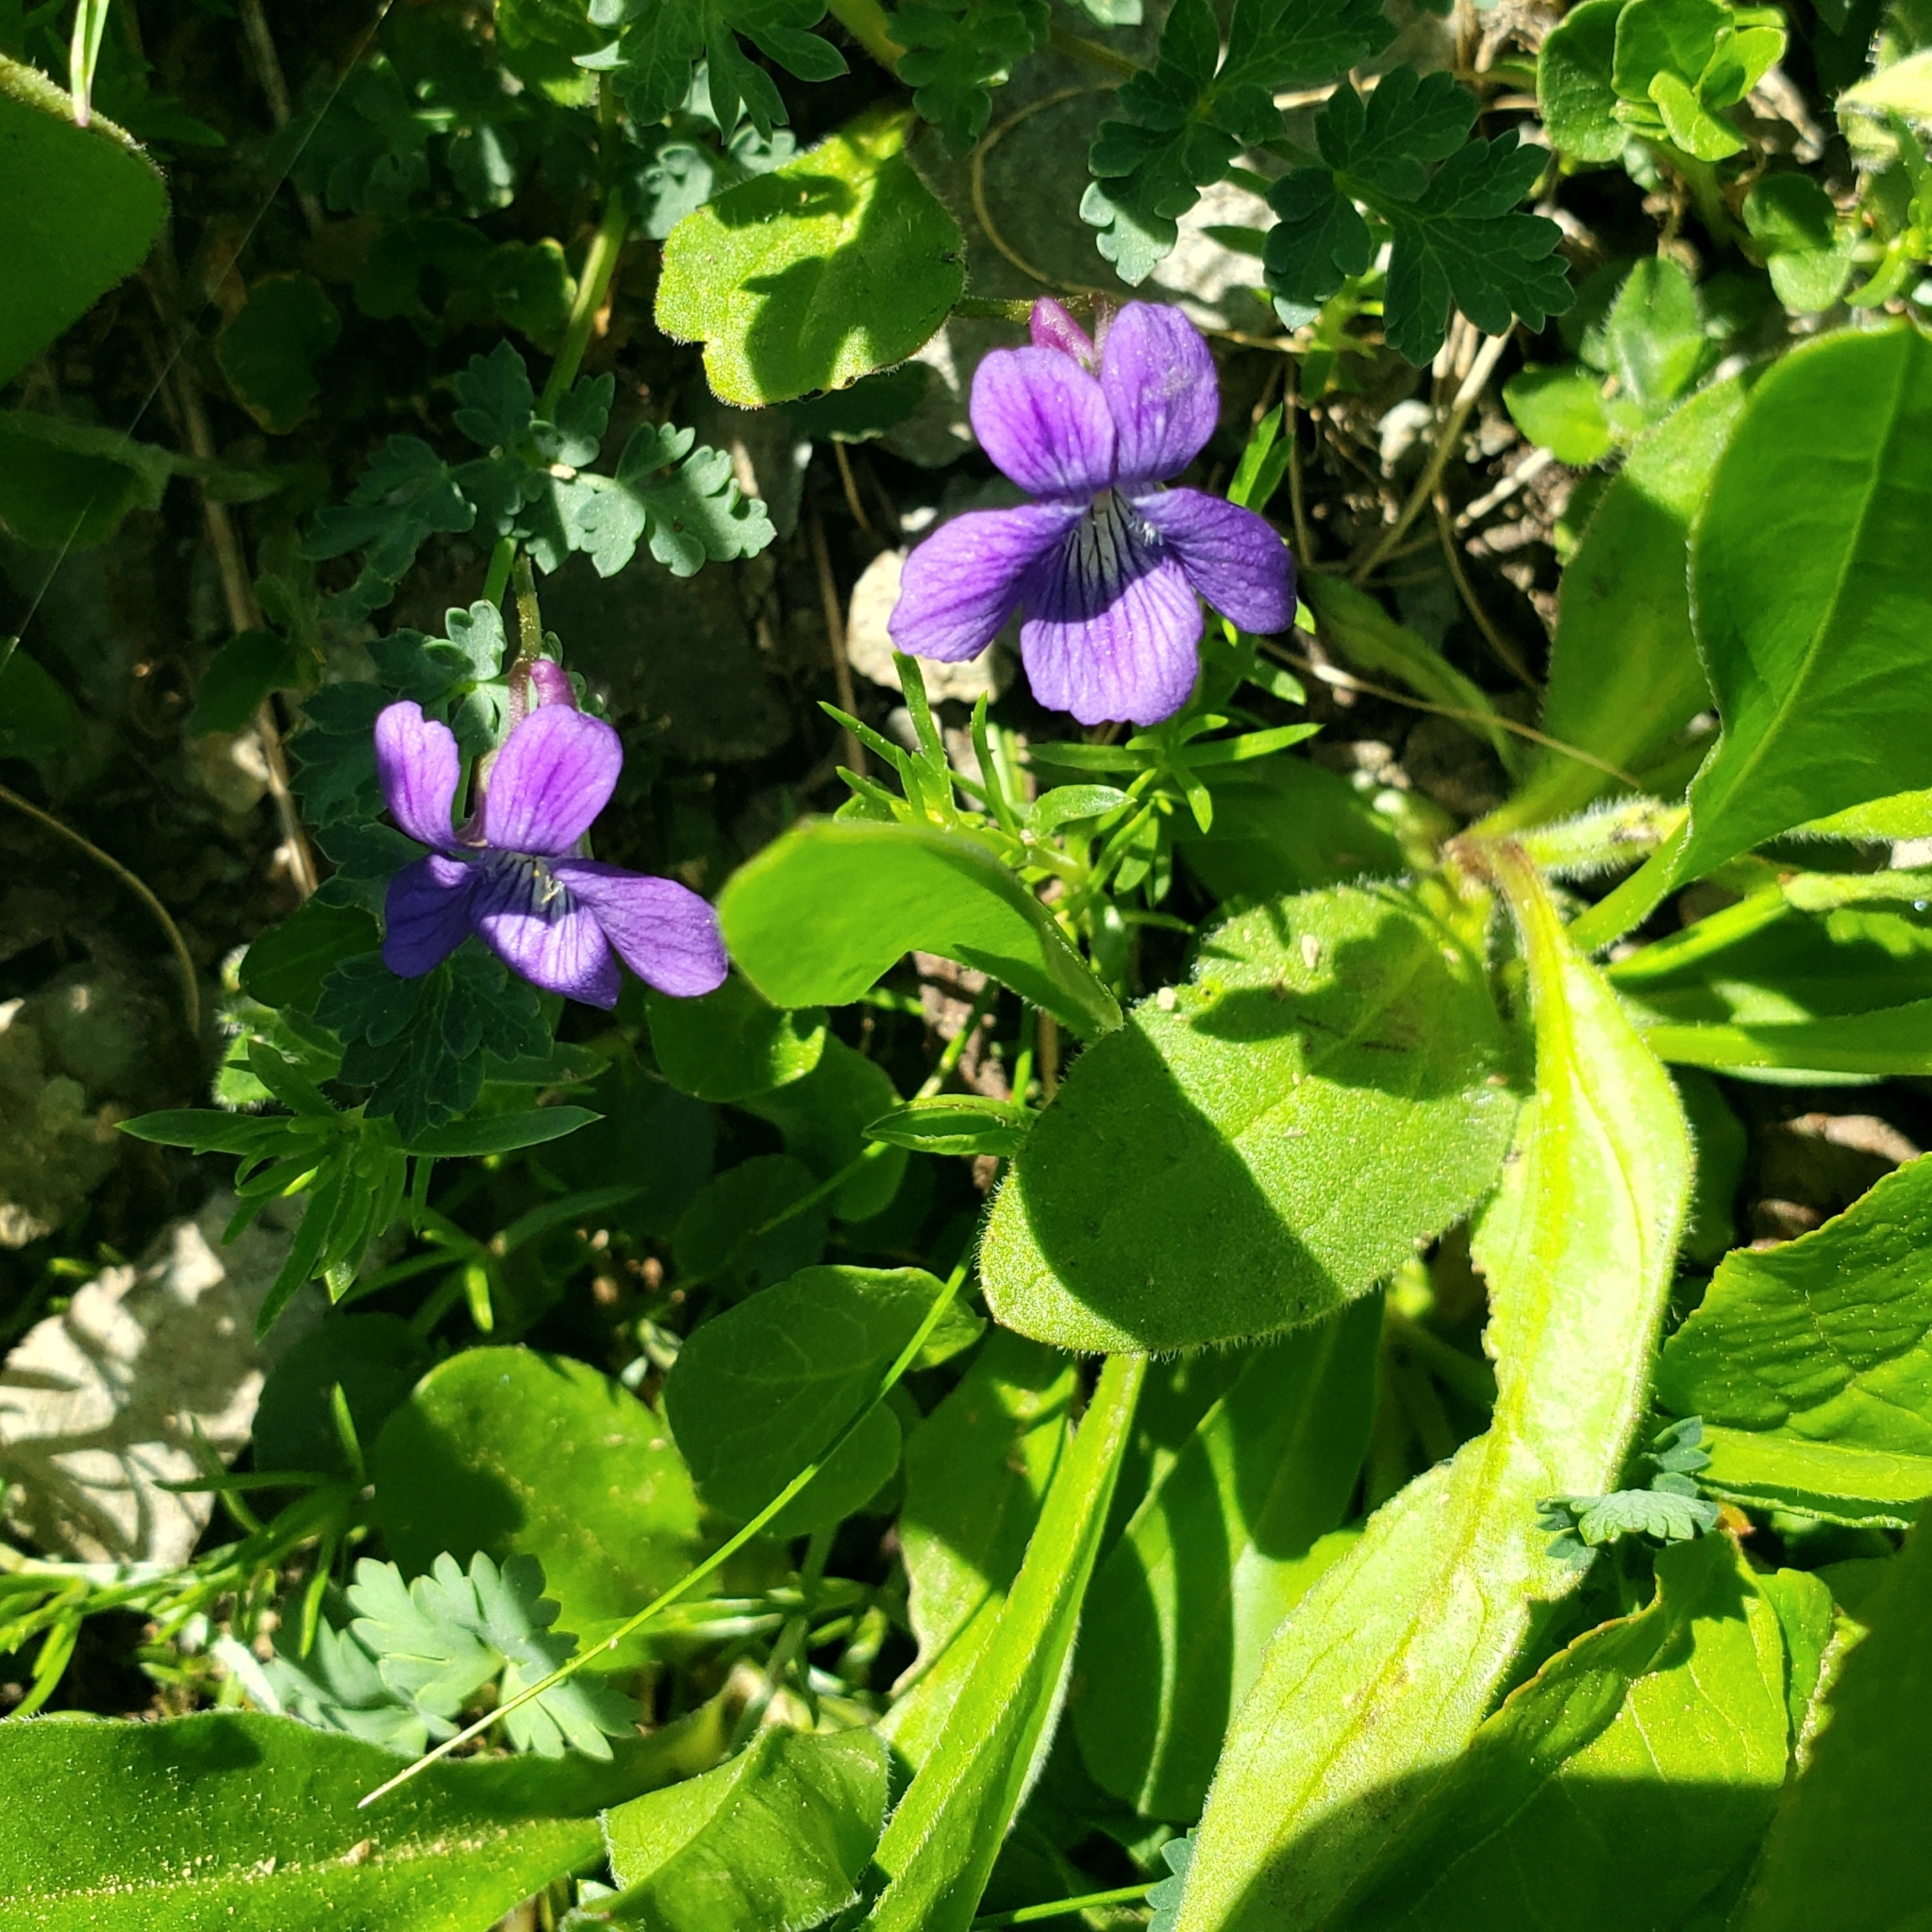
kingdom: Plantae
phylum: Tracheophyta
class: Magnoliopsida
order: Malpighiales
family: Violaceae
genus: Viola
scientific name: Viola adunca
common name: Sand violet
